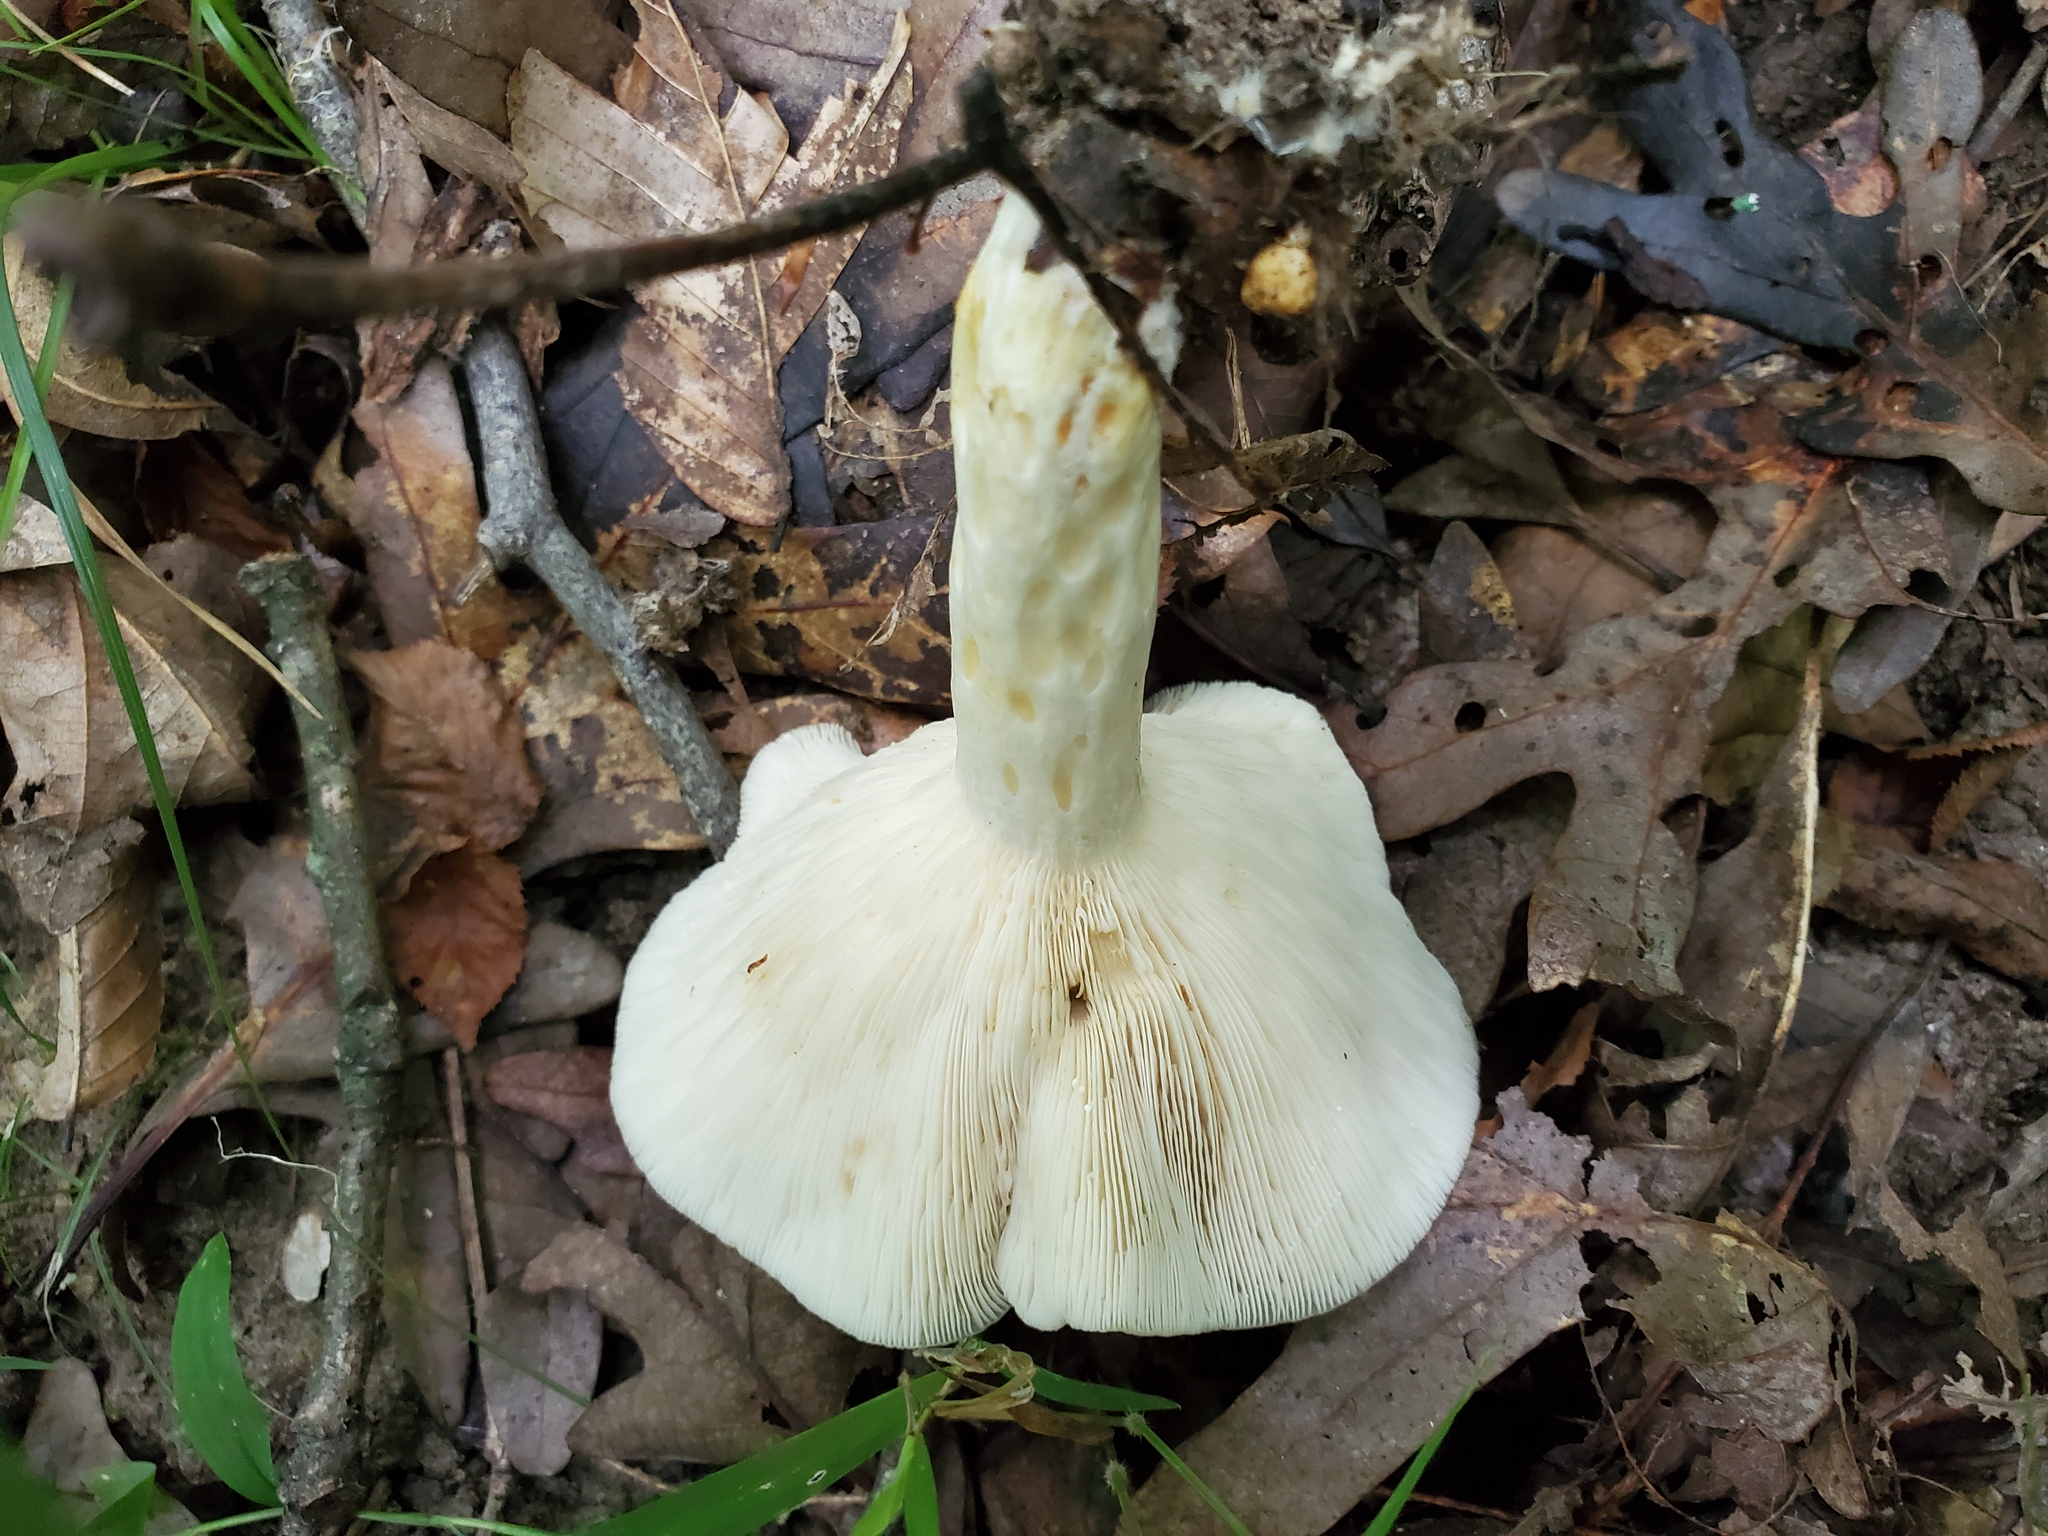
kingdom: Fungi
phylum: Basidiomycota
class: Agaricomycetes
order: Russulales
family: Russulaceae
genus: Lactarius
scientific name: Lactarius yazooensis
